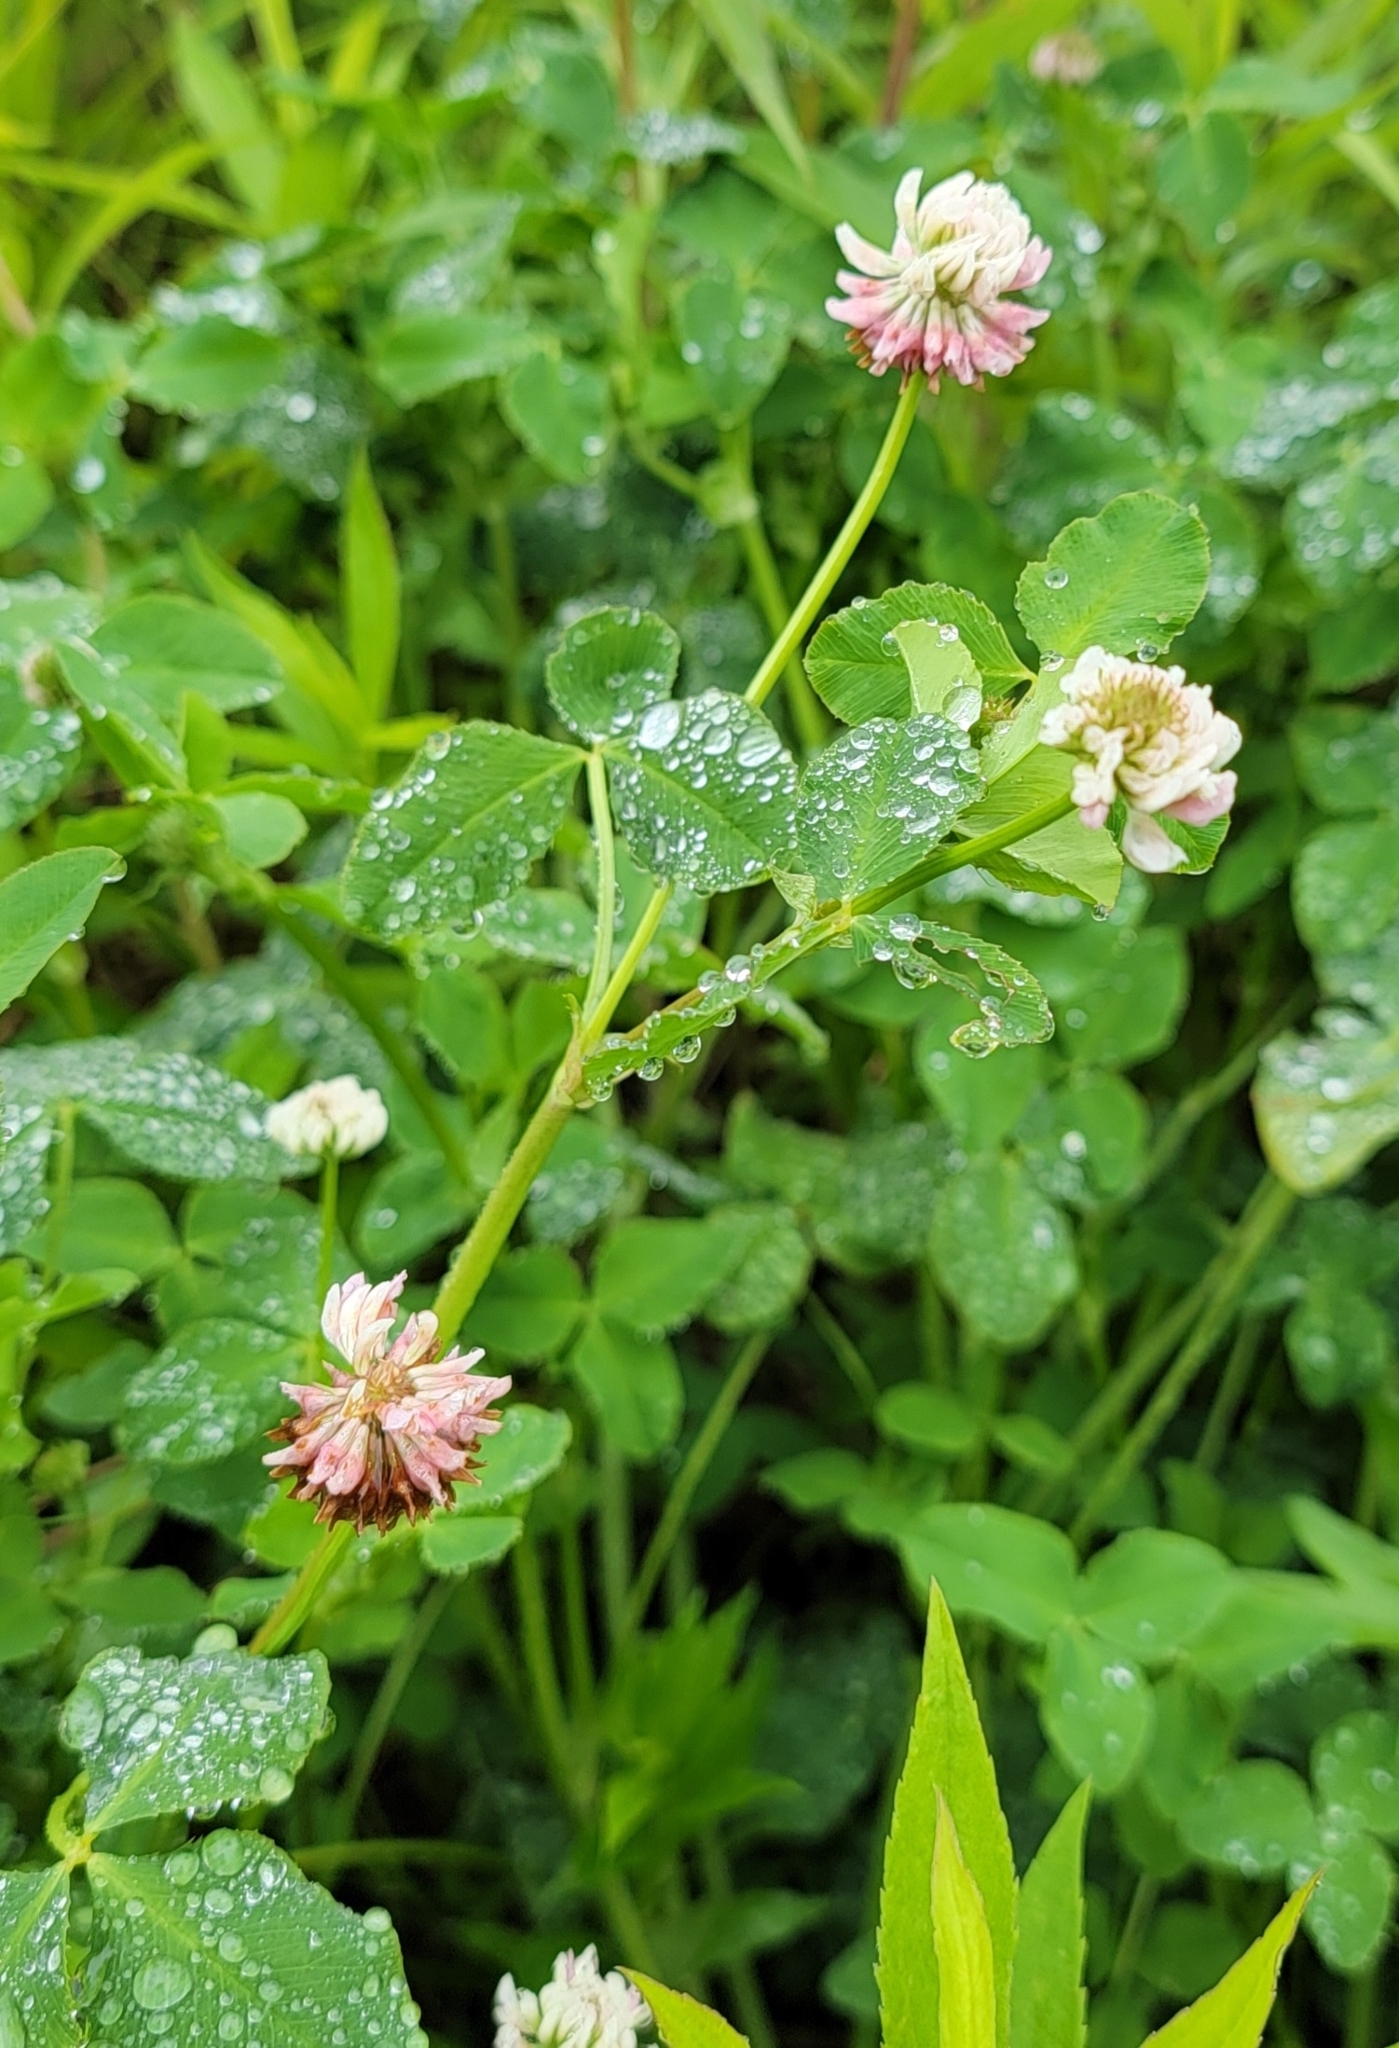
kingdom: Plantae
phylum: Tracheophyta
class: Magnoliopsida
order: Fabales
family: Fabaceae
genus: Trifolium
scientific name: Trifolium hybridum
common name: Alsike clover
